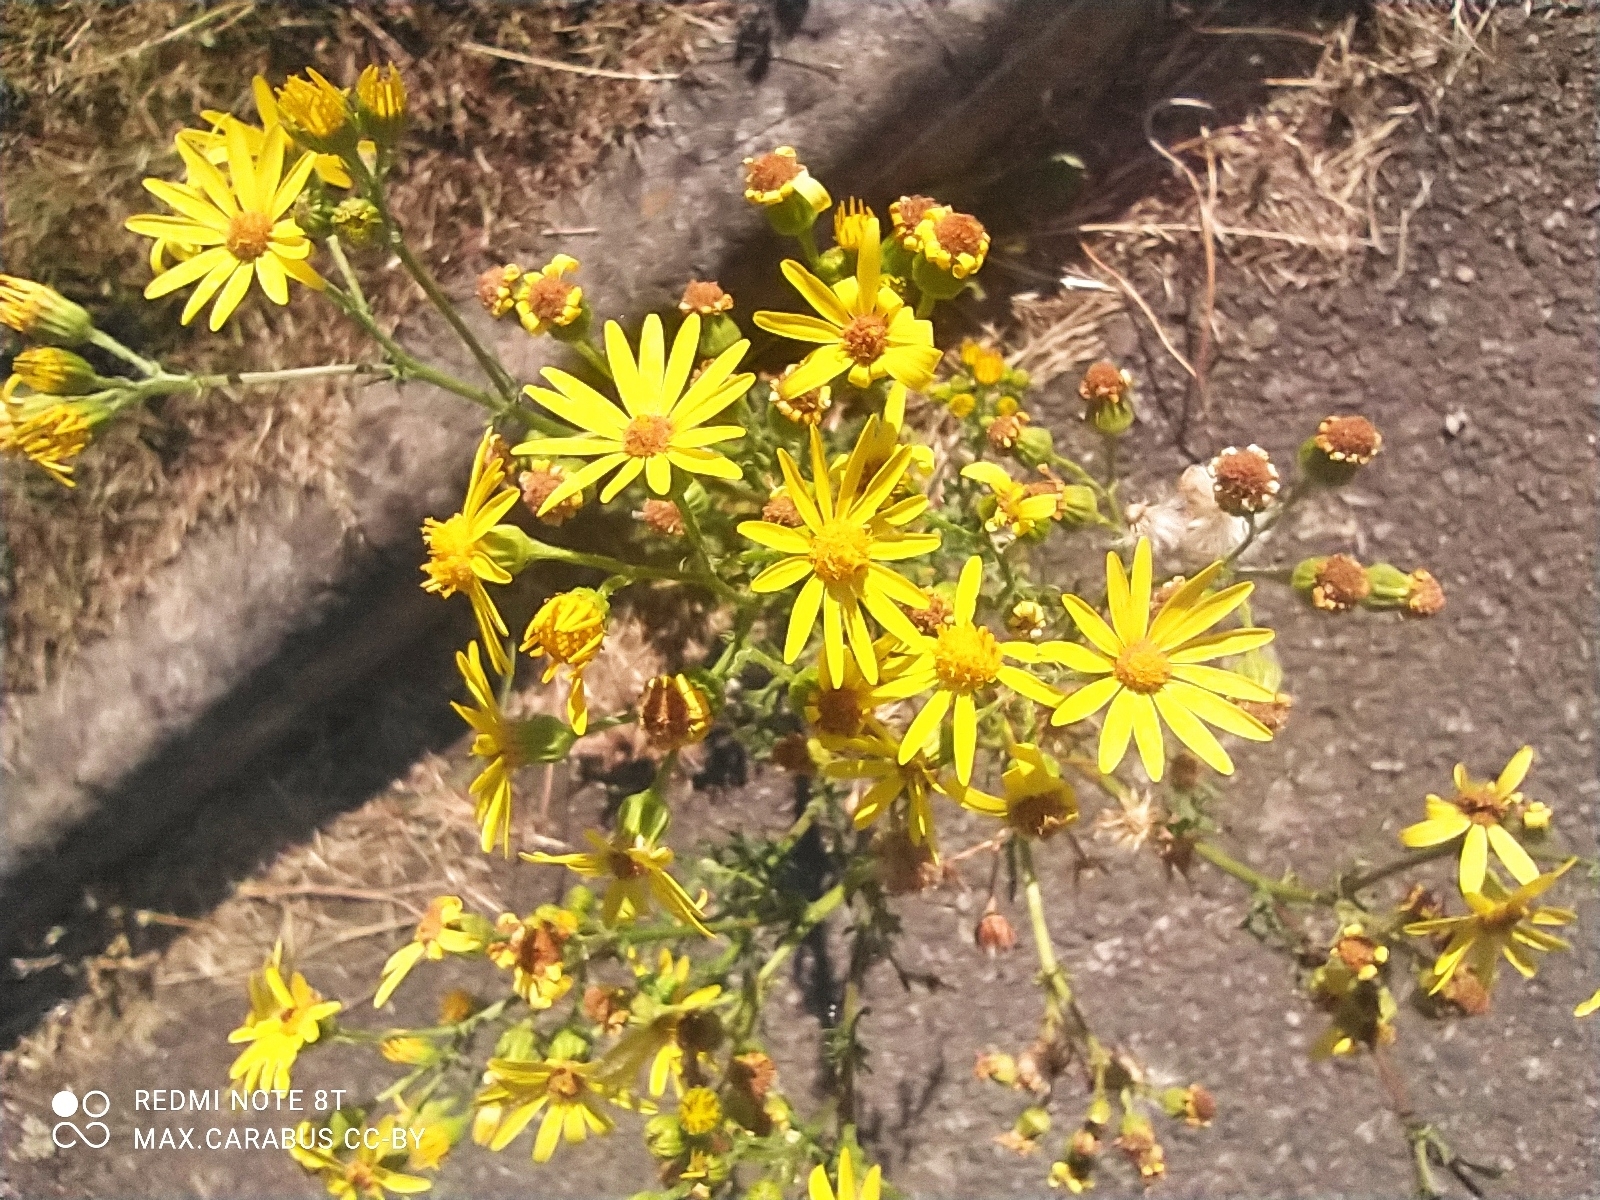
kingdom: Plantae
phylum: Tracheophyta
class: Magnoliopsida
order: Asterales
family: Asteraceae
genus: Jacobaea
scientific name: Jacobaea vulgaris
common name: Stinking willie
